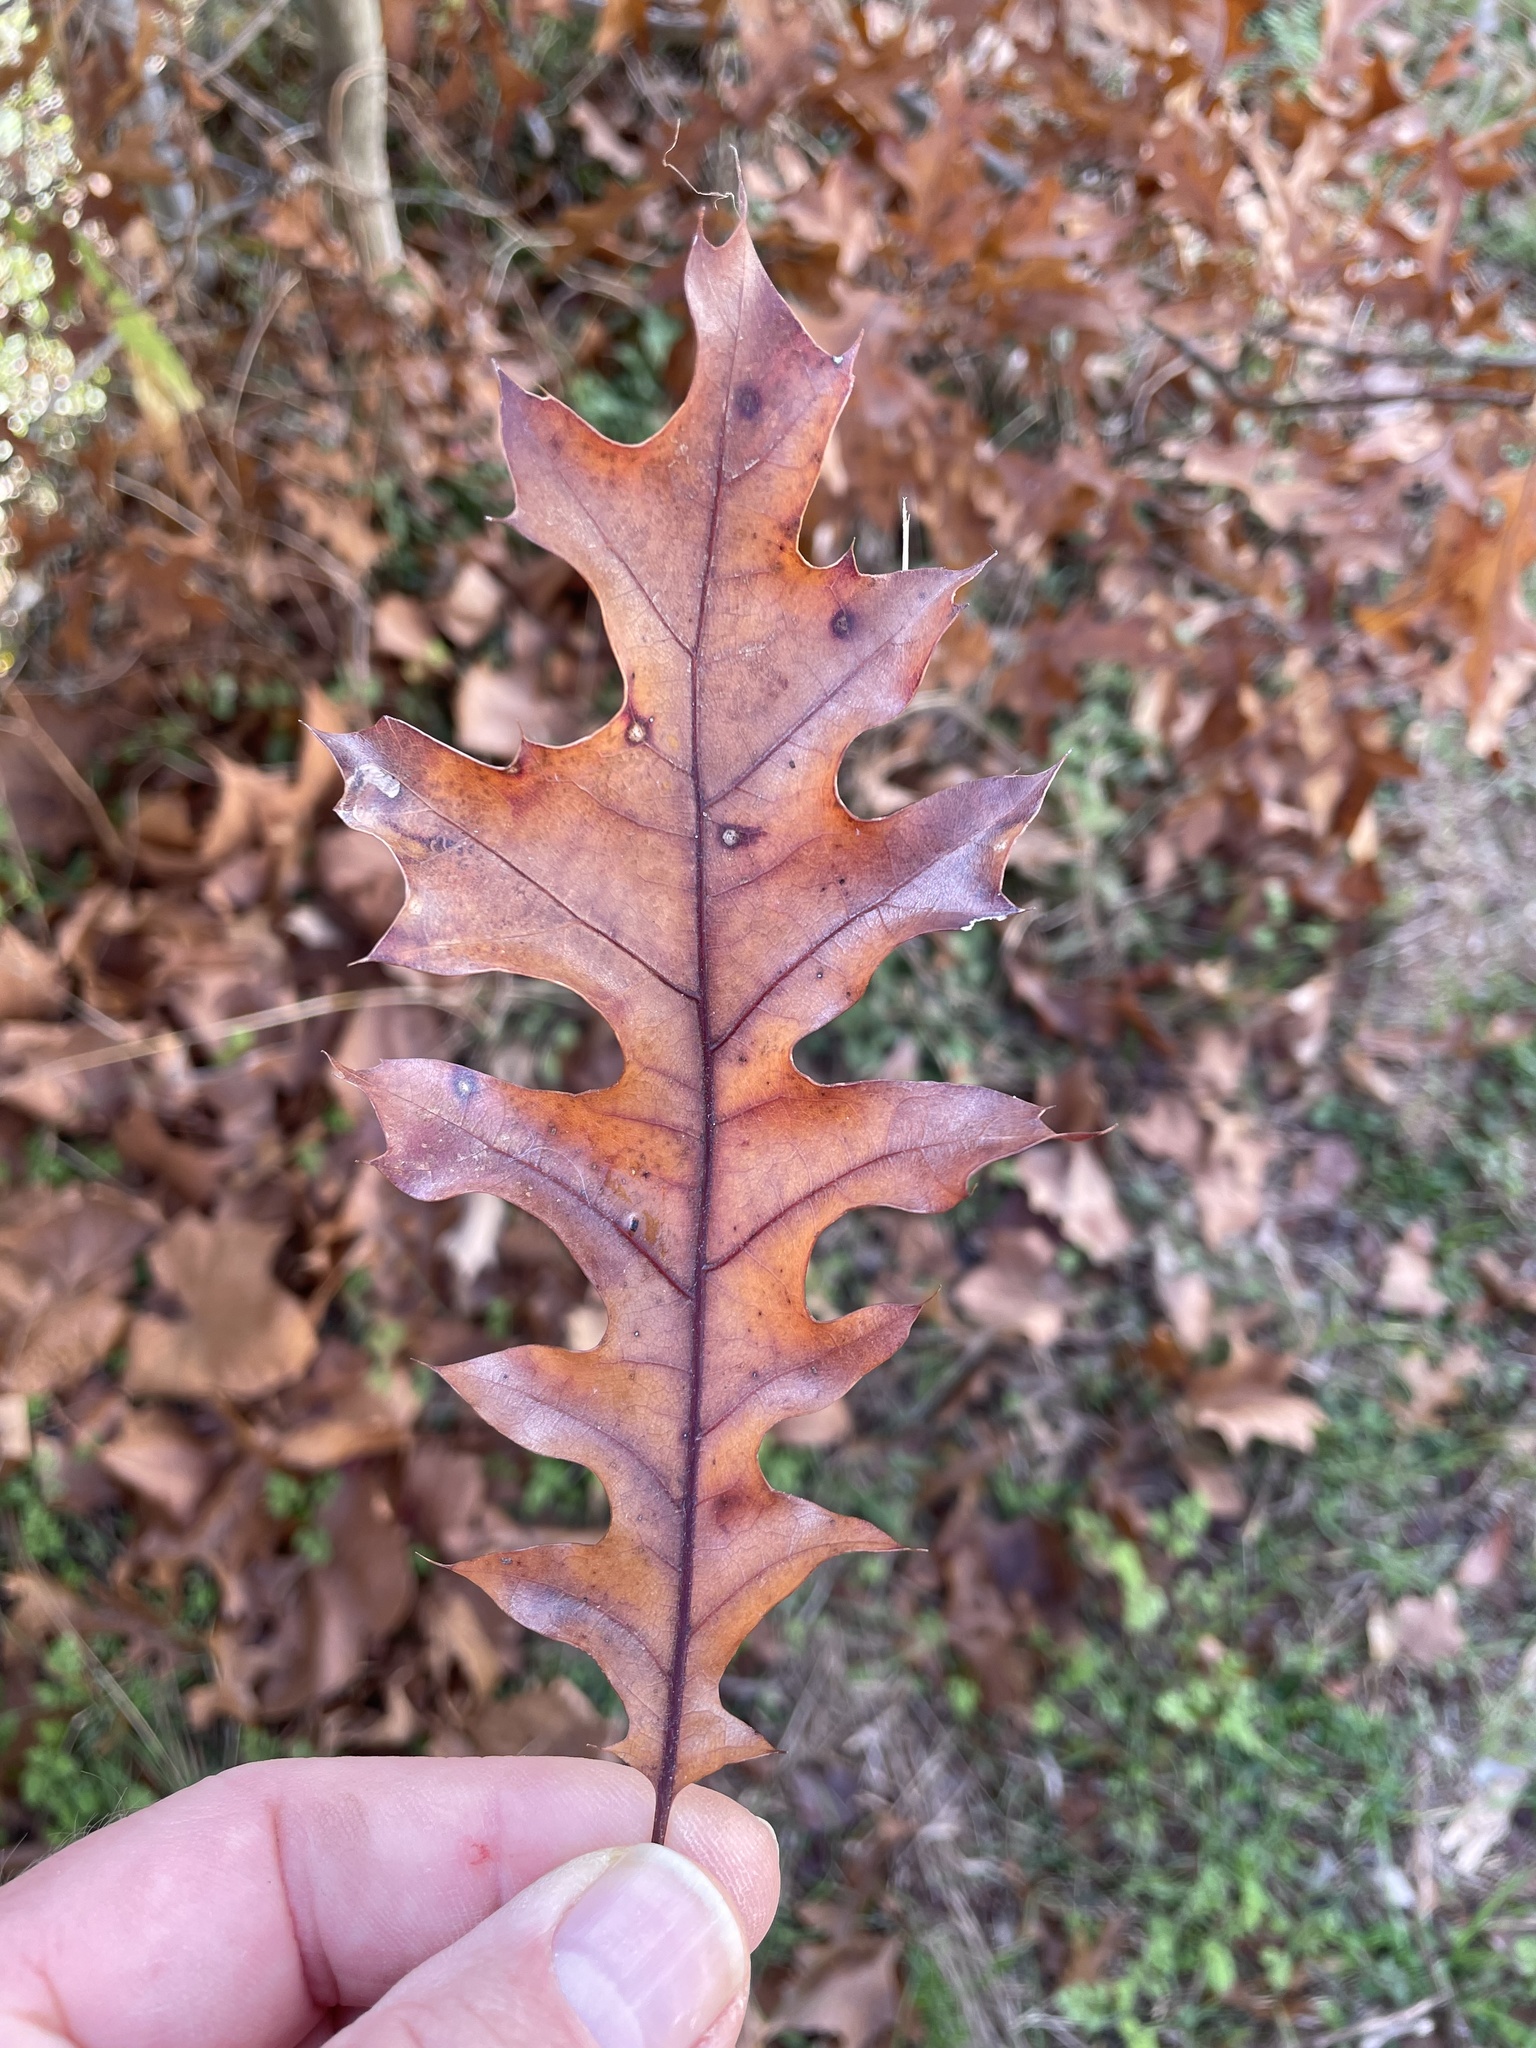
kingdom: Plantae
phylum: Tracheophyta
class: Magnoliopsida
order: Fagales
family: Fagaceae
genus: Quercus
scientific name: Quercus shumardii
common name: Shumard oak
